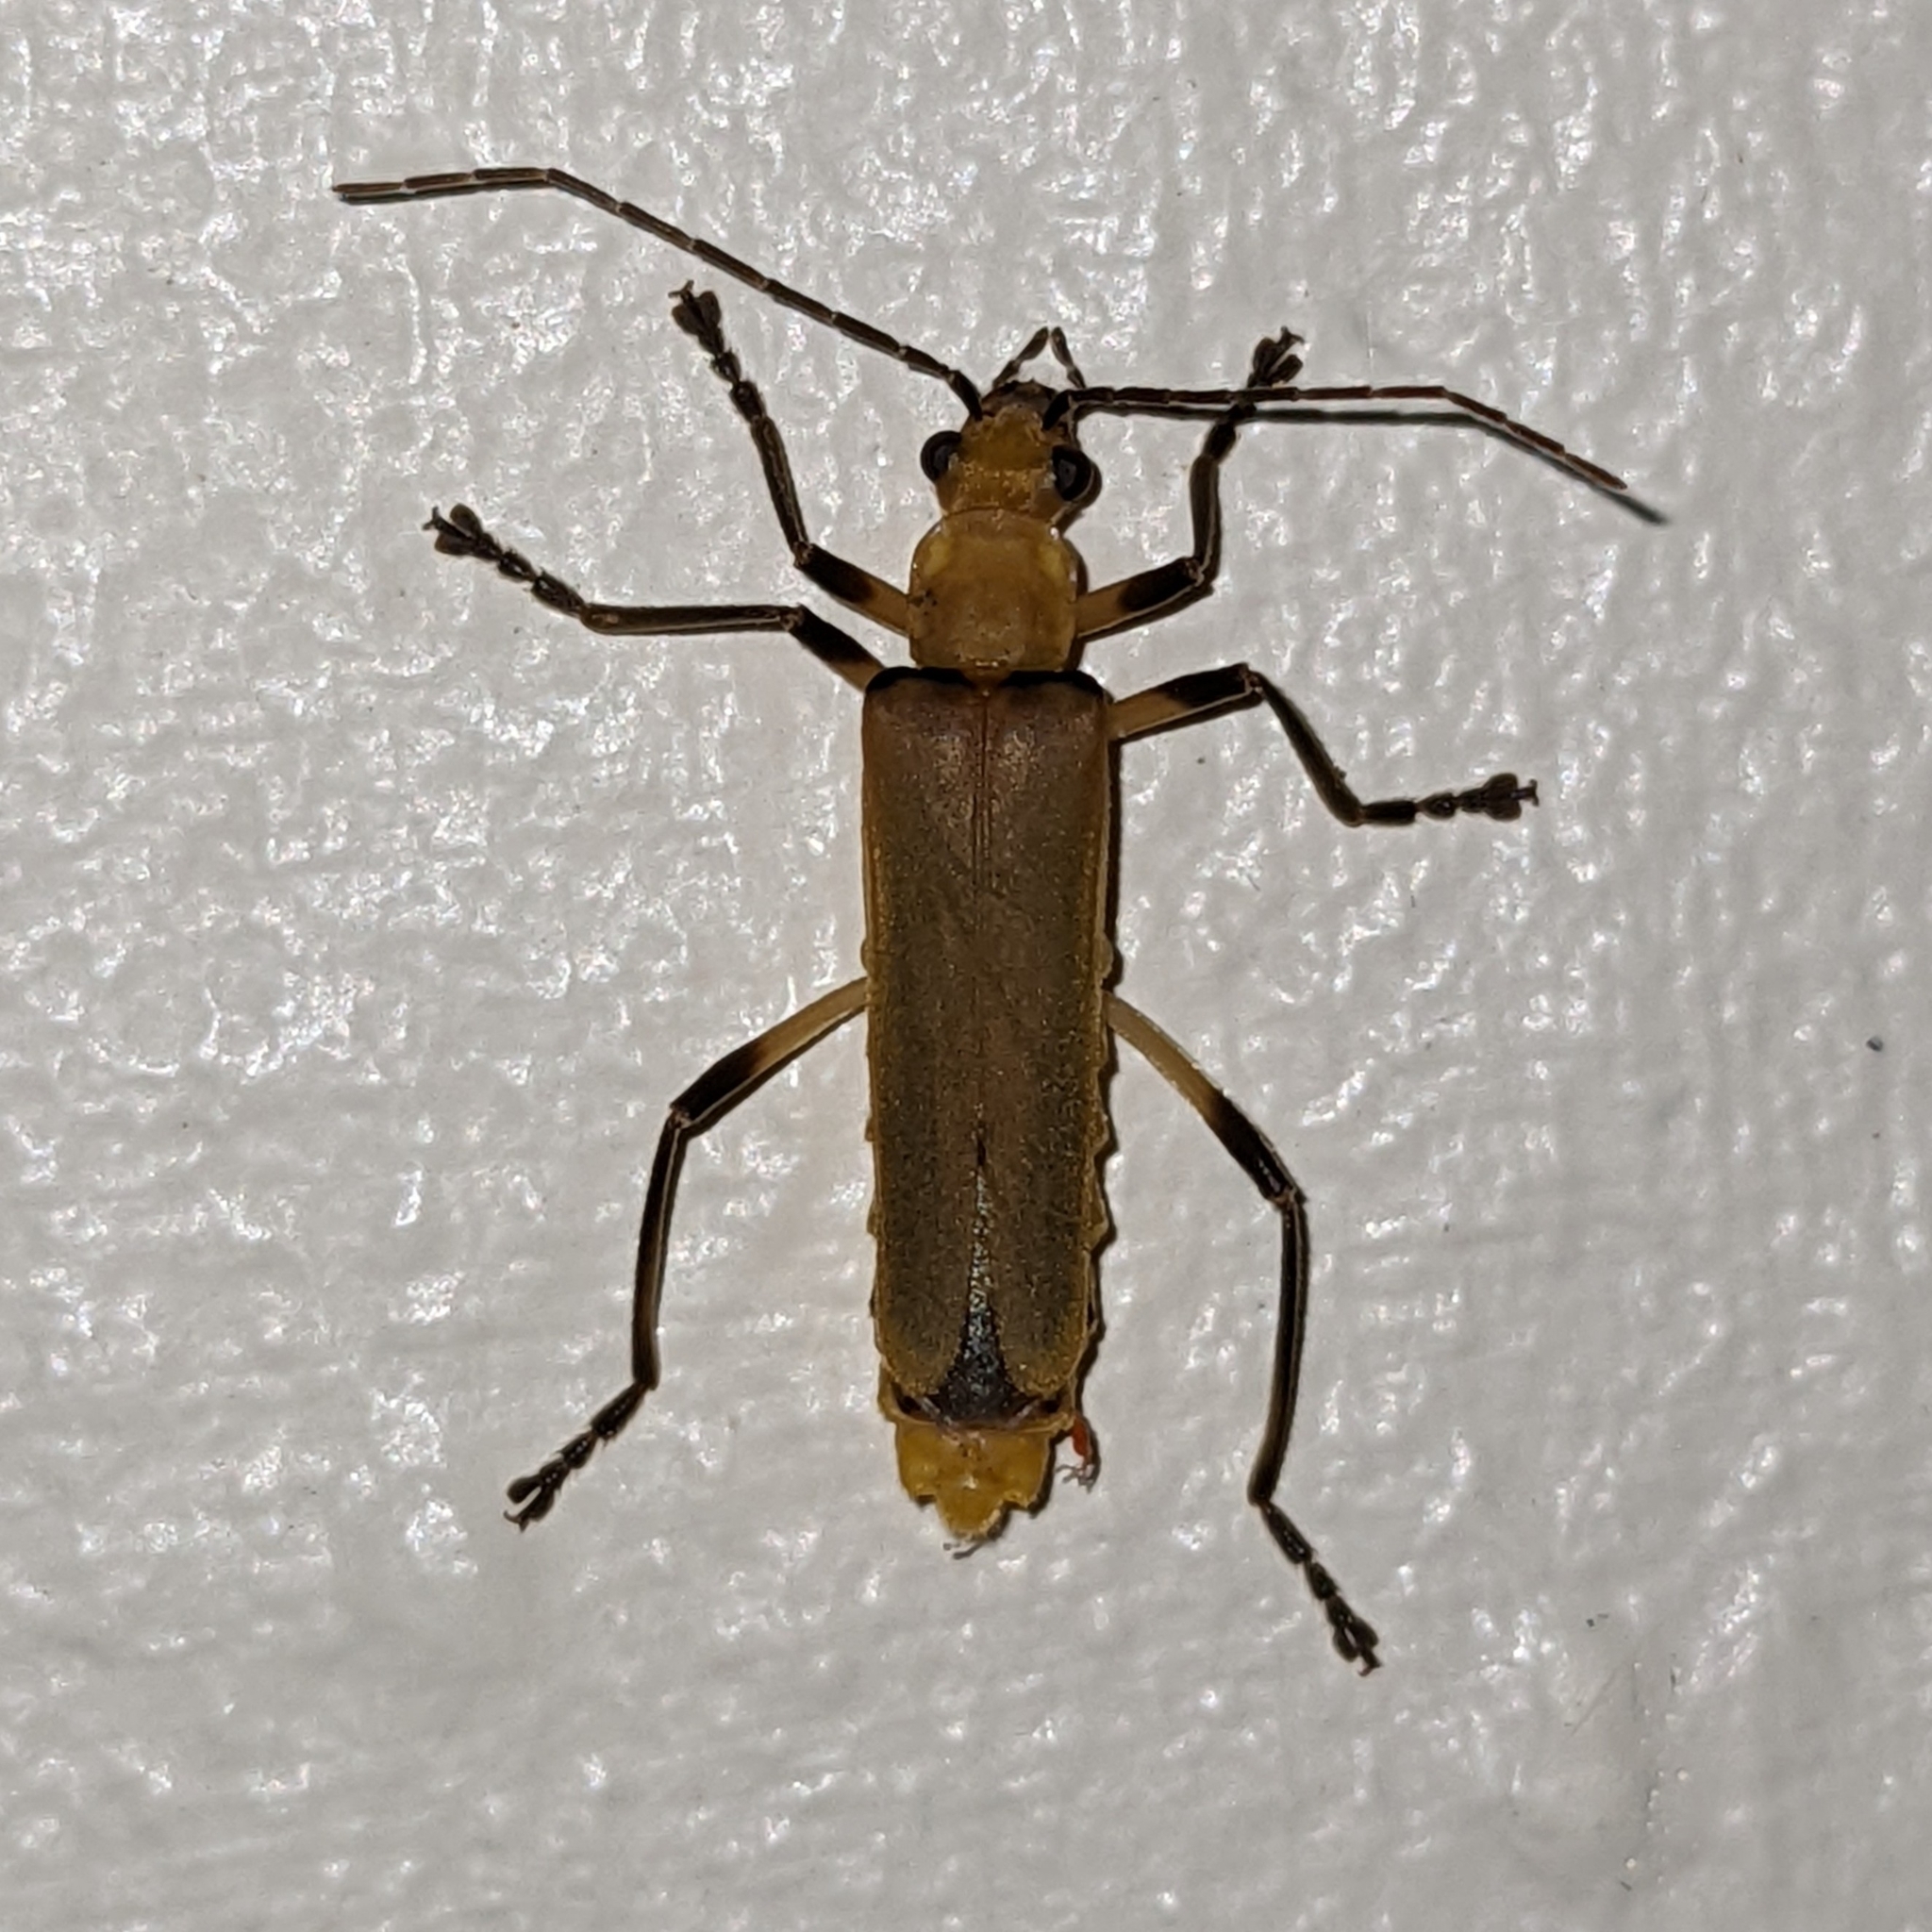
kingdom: Animalia
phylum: Arthropoda
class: Insecta
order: Coleoptera
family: Cantharidae
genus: Chauliognathus
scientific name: Chauliognathus
